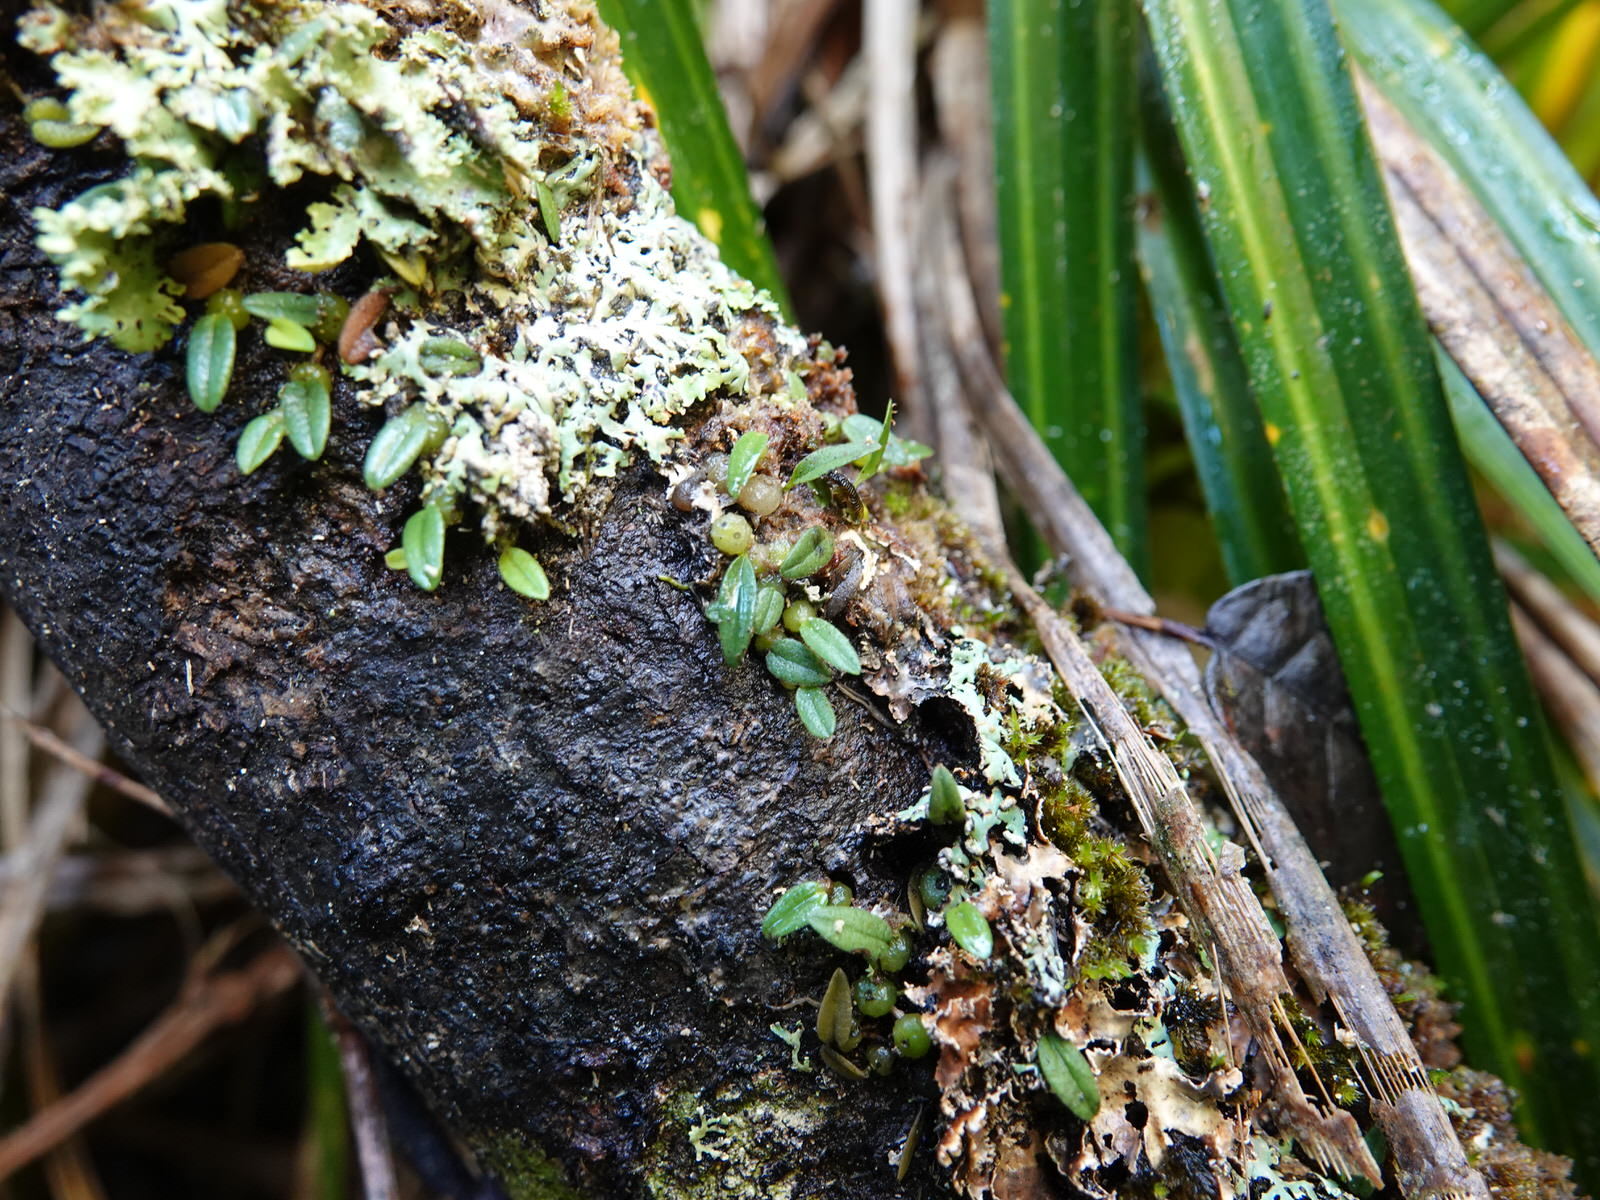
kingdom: Plantae
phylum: Tracheophyta
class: Liliopsida
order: Asparagales
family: Orchidaceae
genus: Bulbophyllum
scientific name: Bulbophyllum pygmaeum
